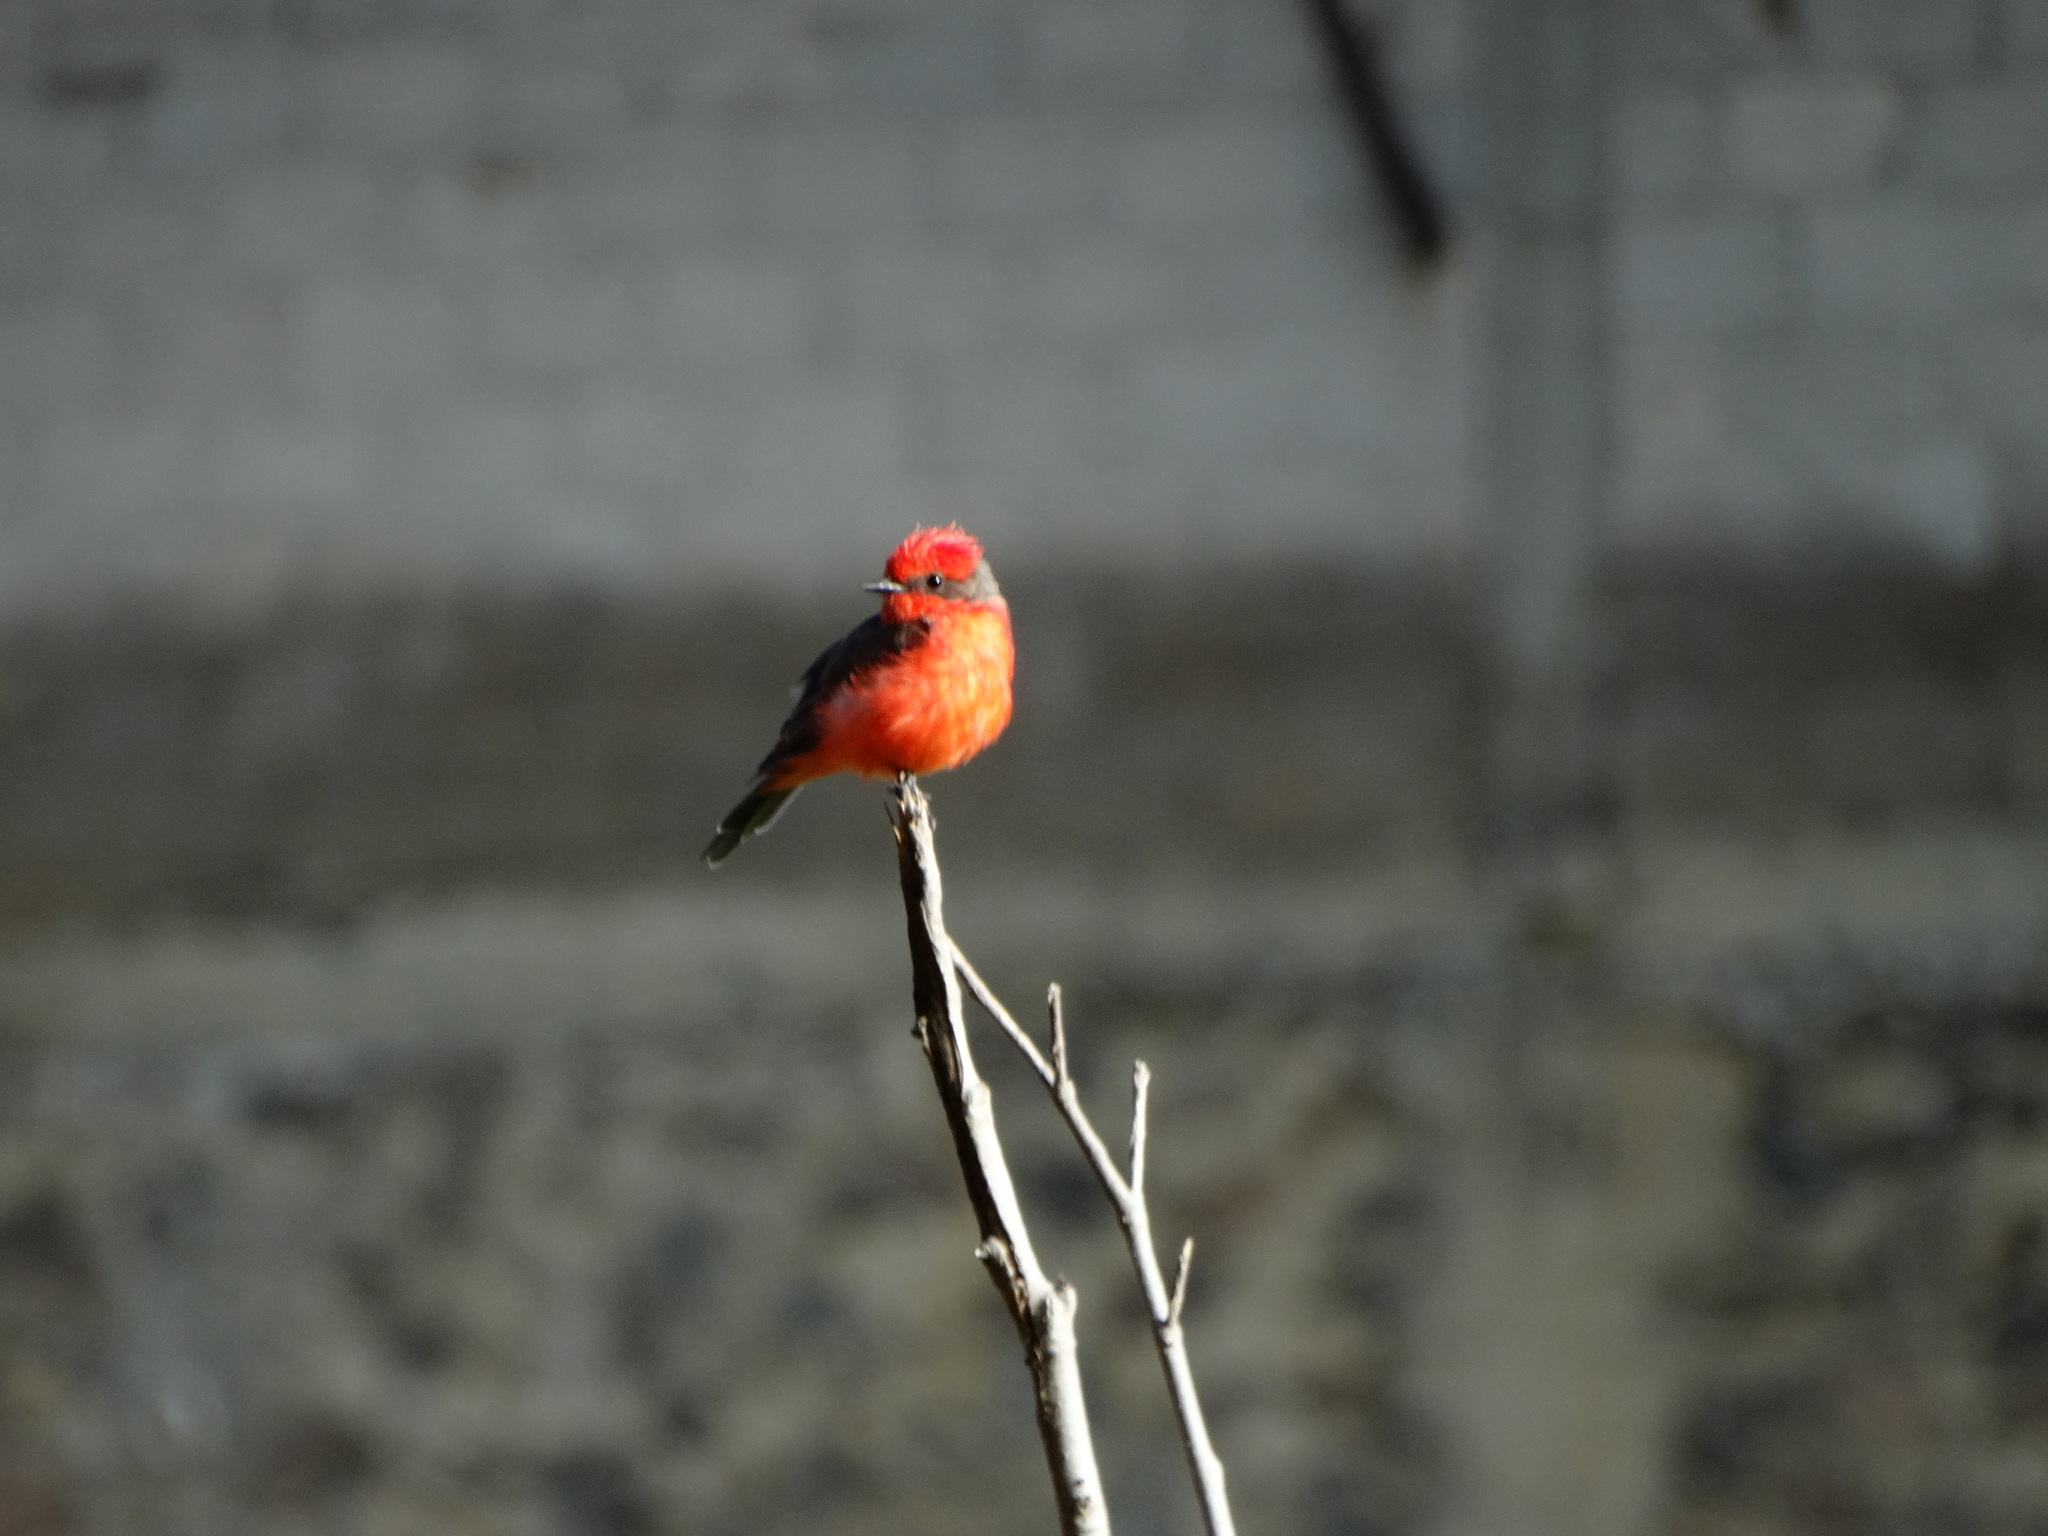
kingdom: Animalia
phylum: Chordata
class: Aves
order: Passeriformes
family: Tyrannidae
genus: Pyrocephalus
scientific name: Pyrocephalus rubinus
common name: Vermilion flycatcher
